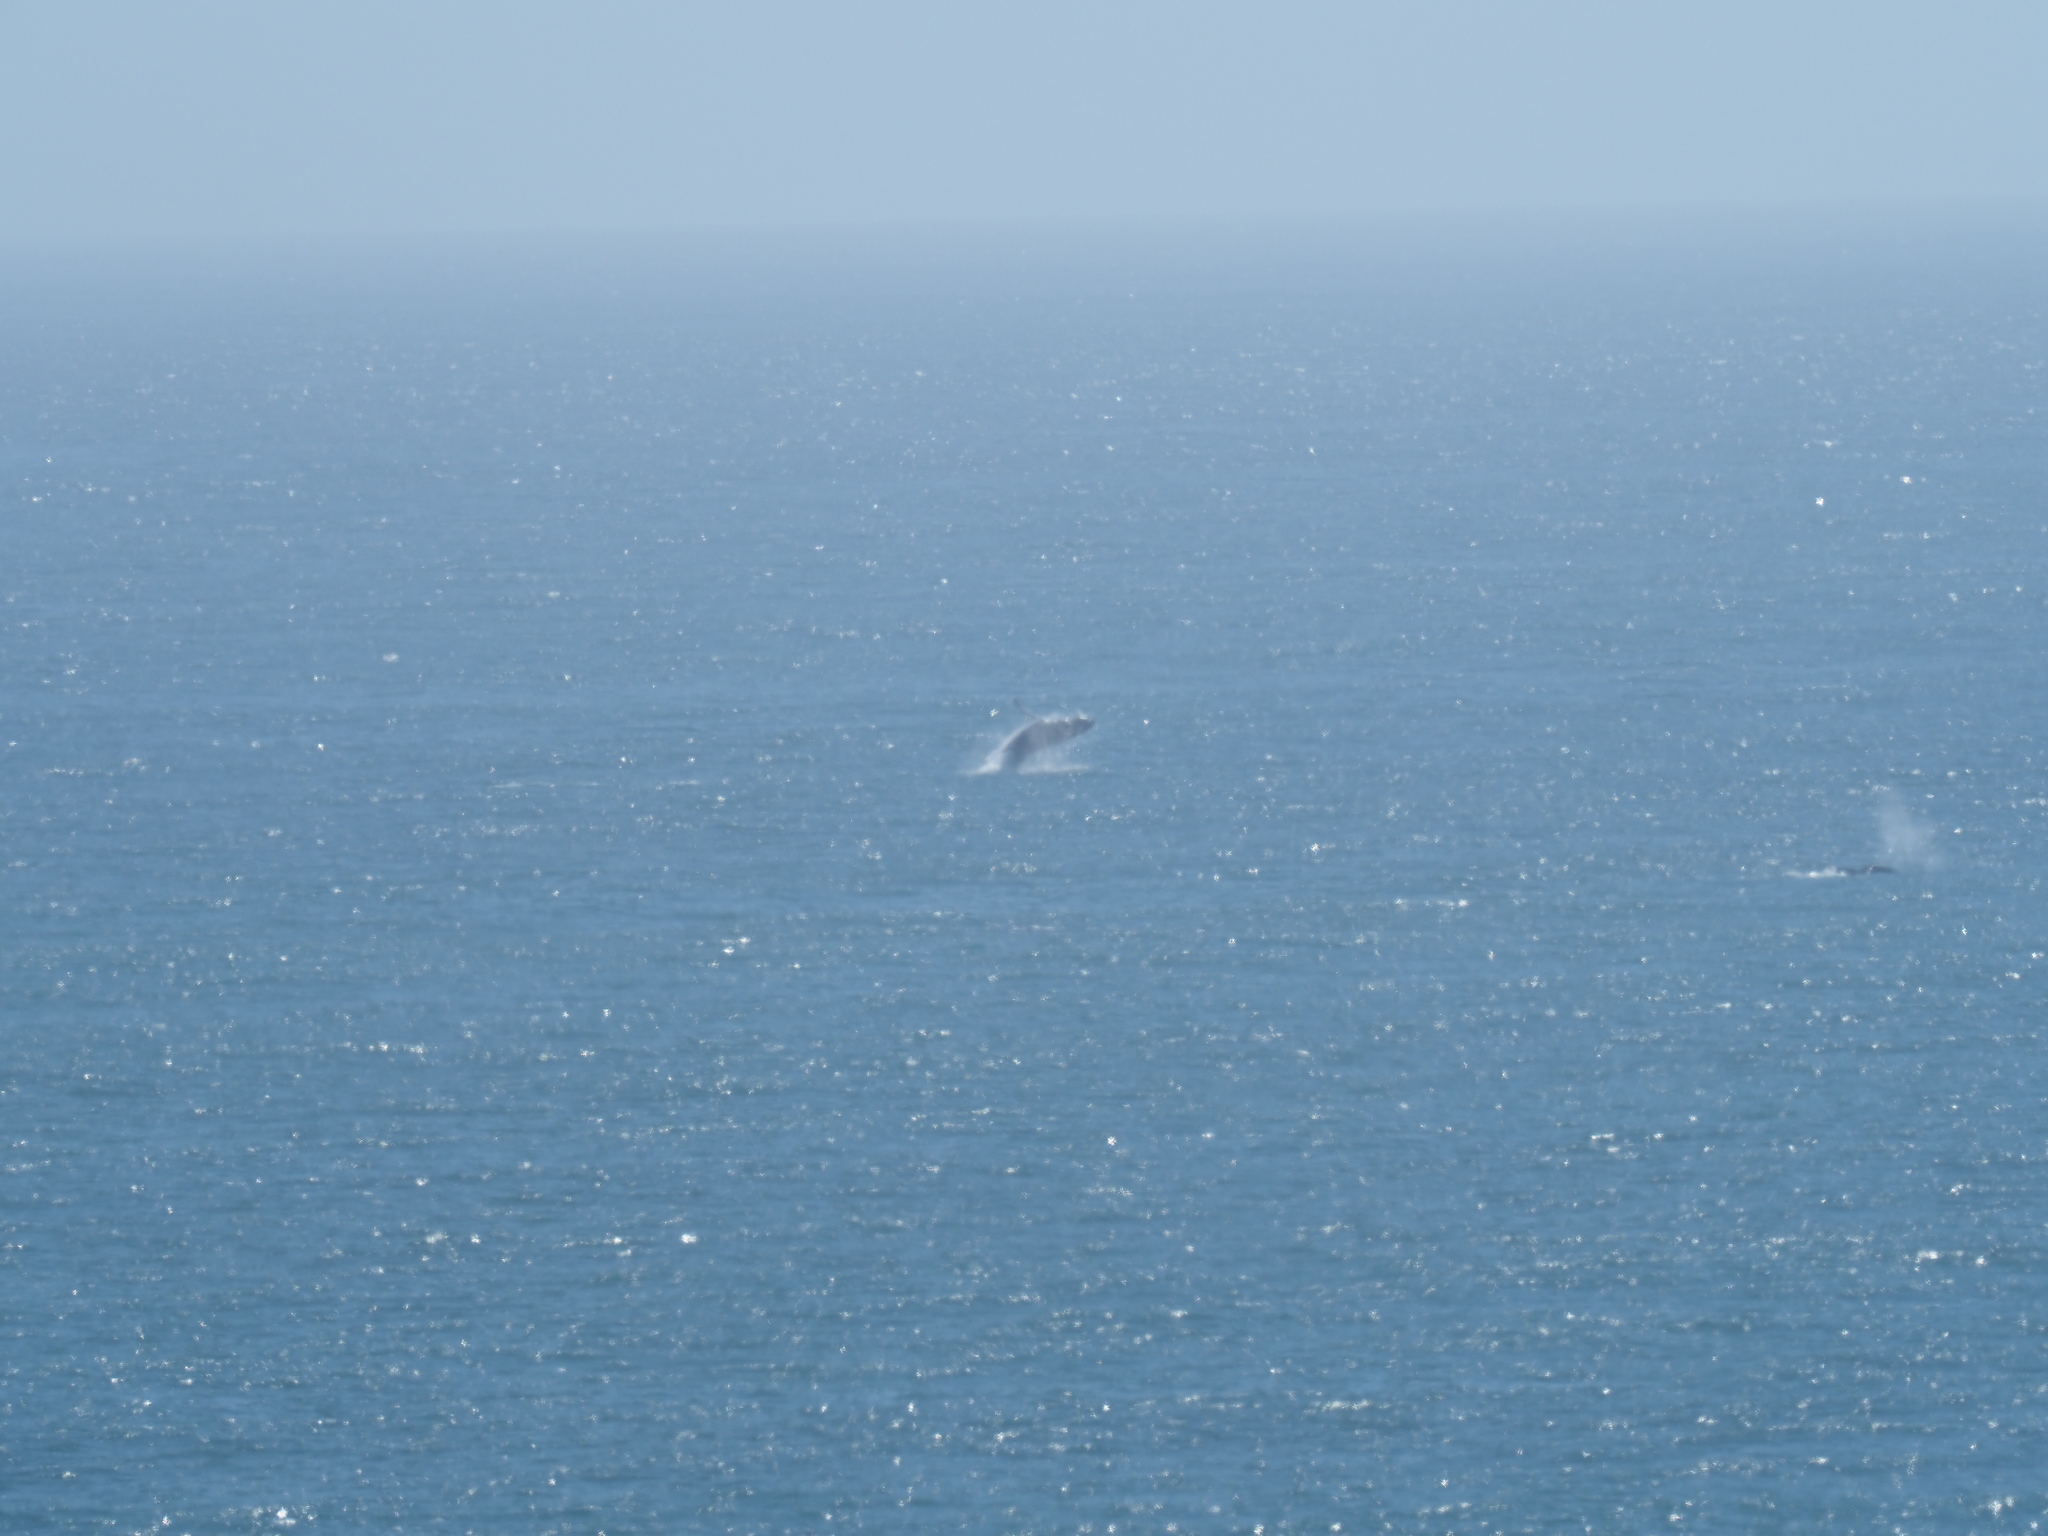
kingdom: Animalia
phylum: Chordata
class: Mammalia
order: Cetacea
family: Balaenopteridae
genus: Megaptera
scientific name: Megaptera novaeangliae
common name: Humpback whale
